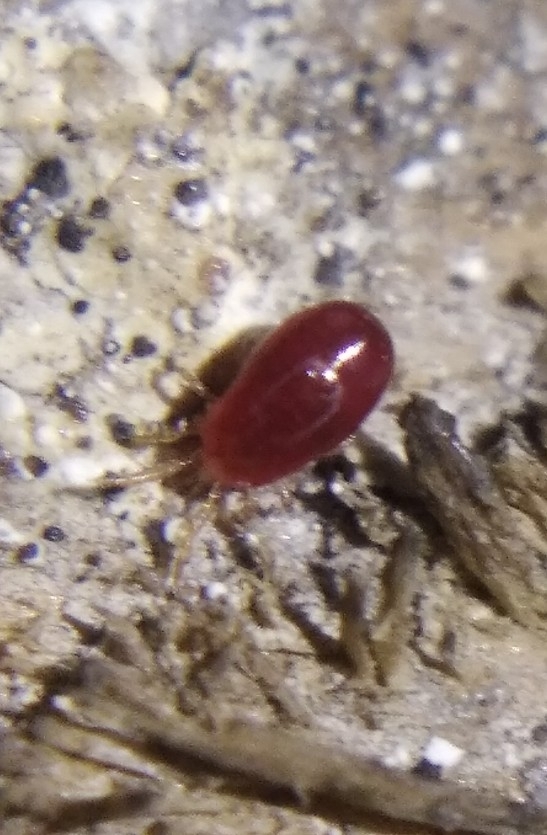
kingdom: Animalia
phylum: Arthropoda
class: Arachnida
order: Mesostigmata
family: Dermanyssidae
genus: Dermanyssus
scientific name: Dermanyssus gallinae
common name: Chicken mite
